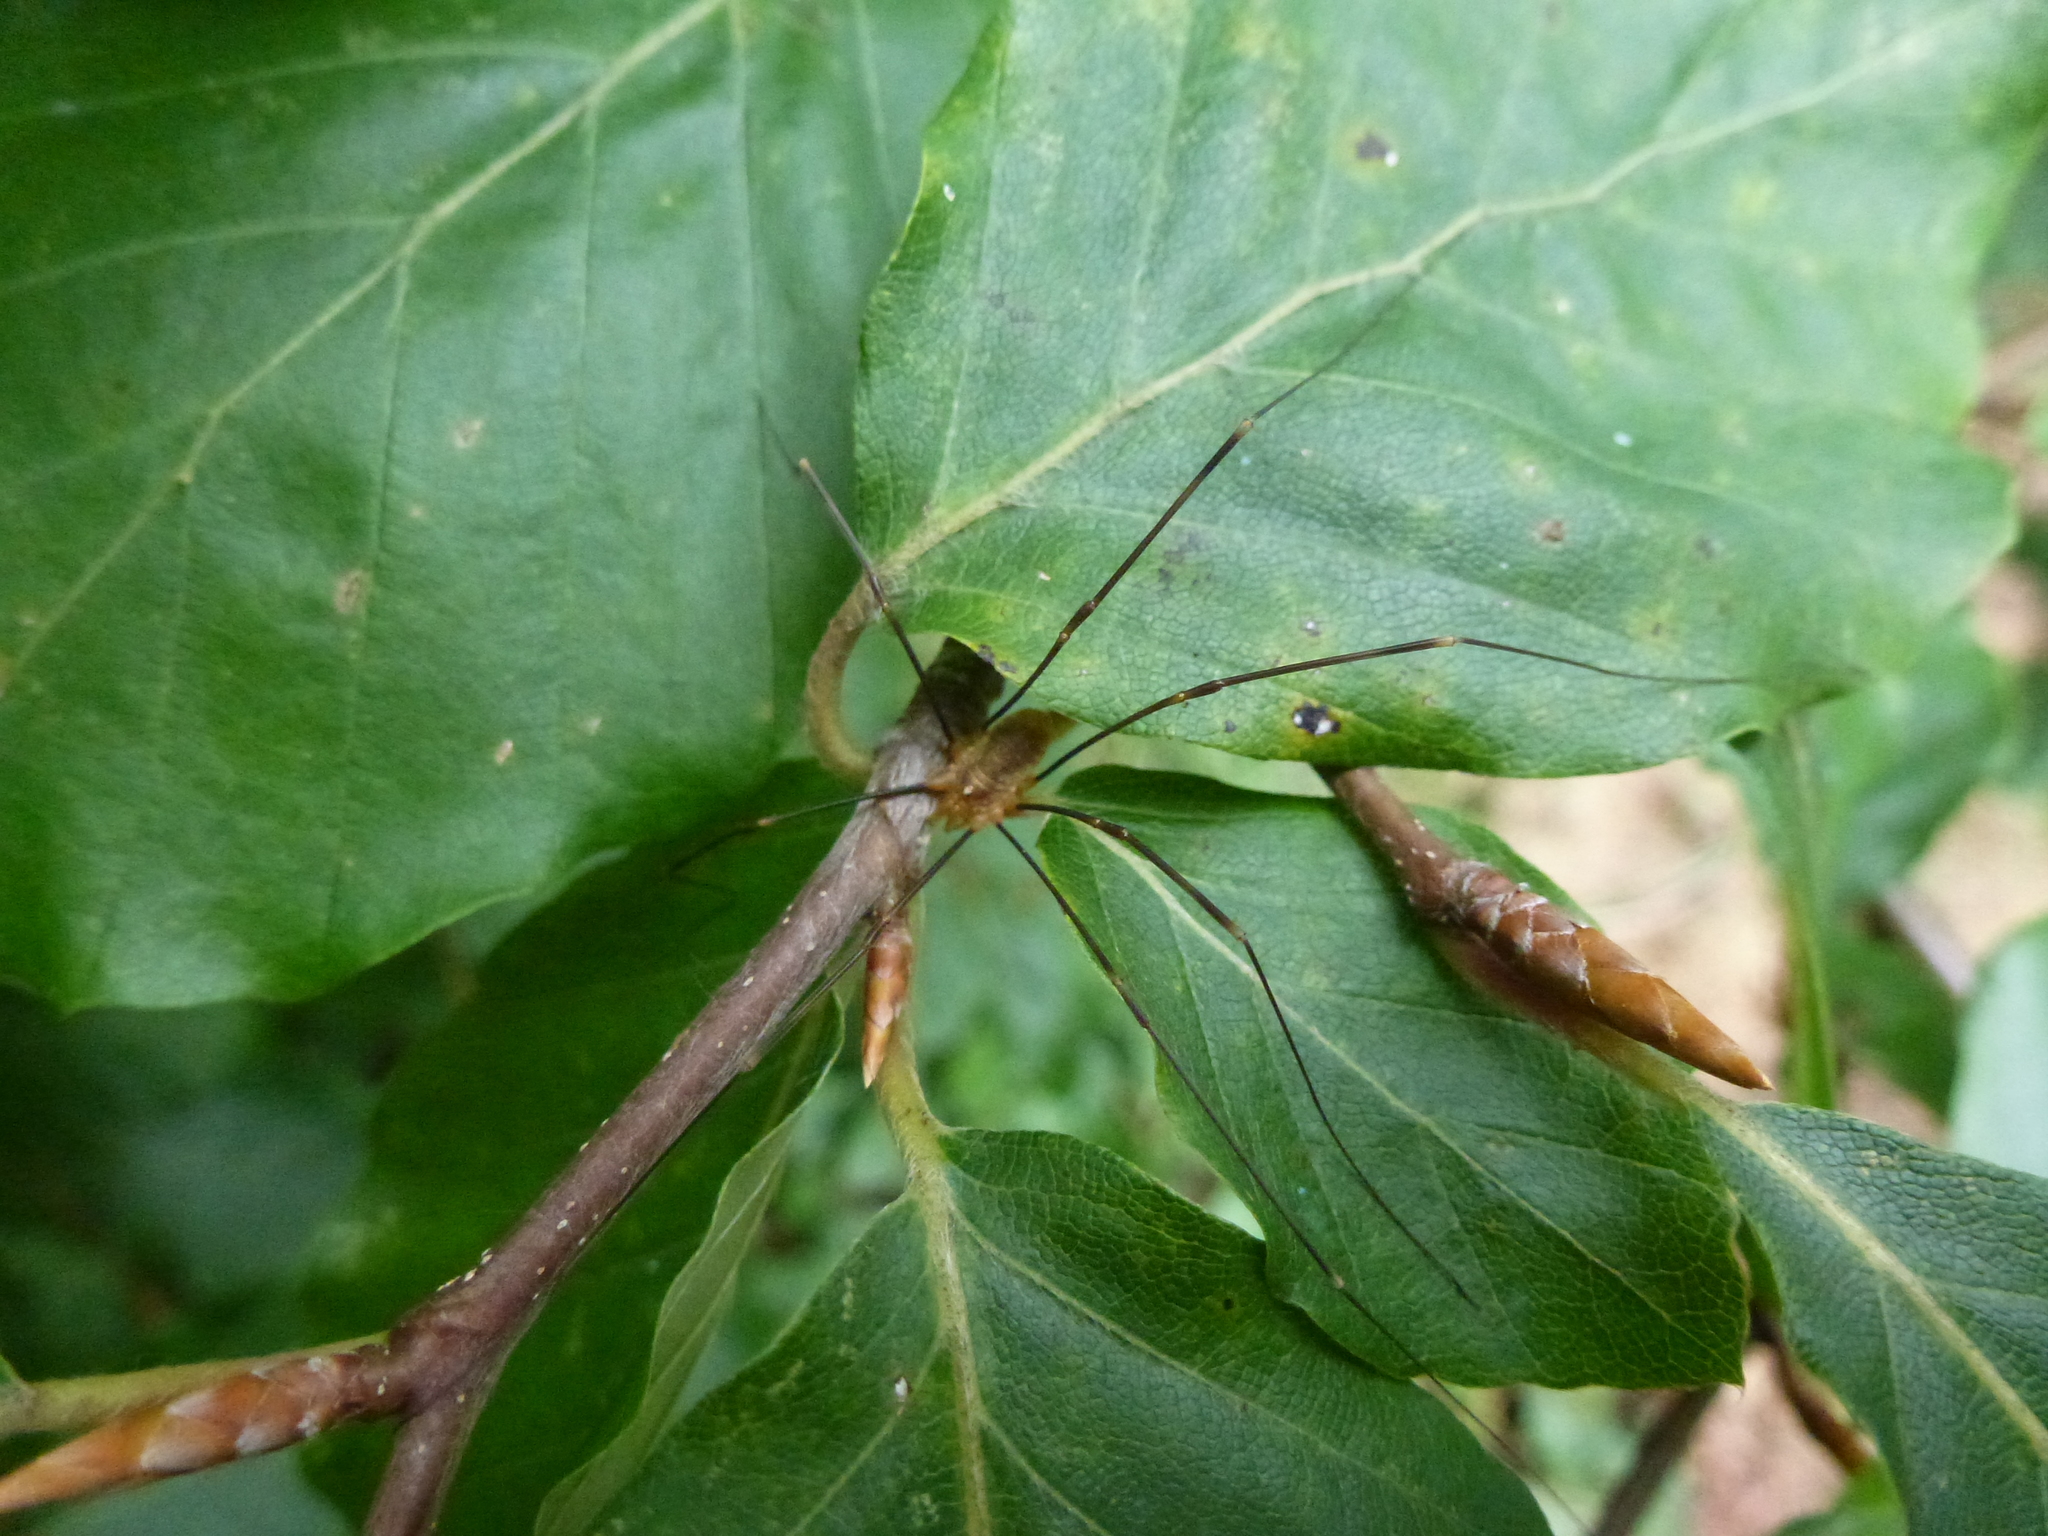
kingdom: Animalia
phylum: Arthropoda
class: Arachnida
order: Opiliones
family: Phalangiidae
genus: Opilio
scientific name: Opilio canestrinii
